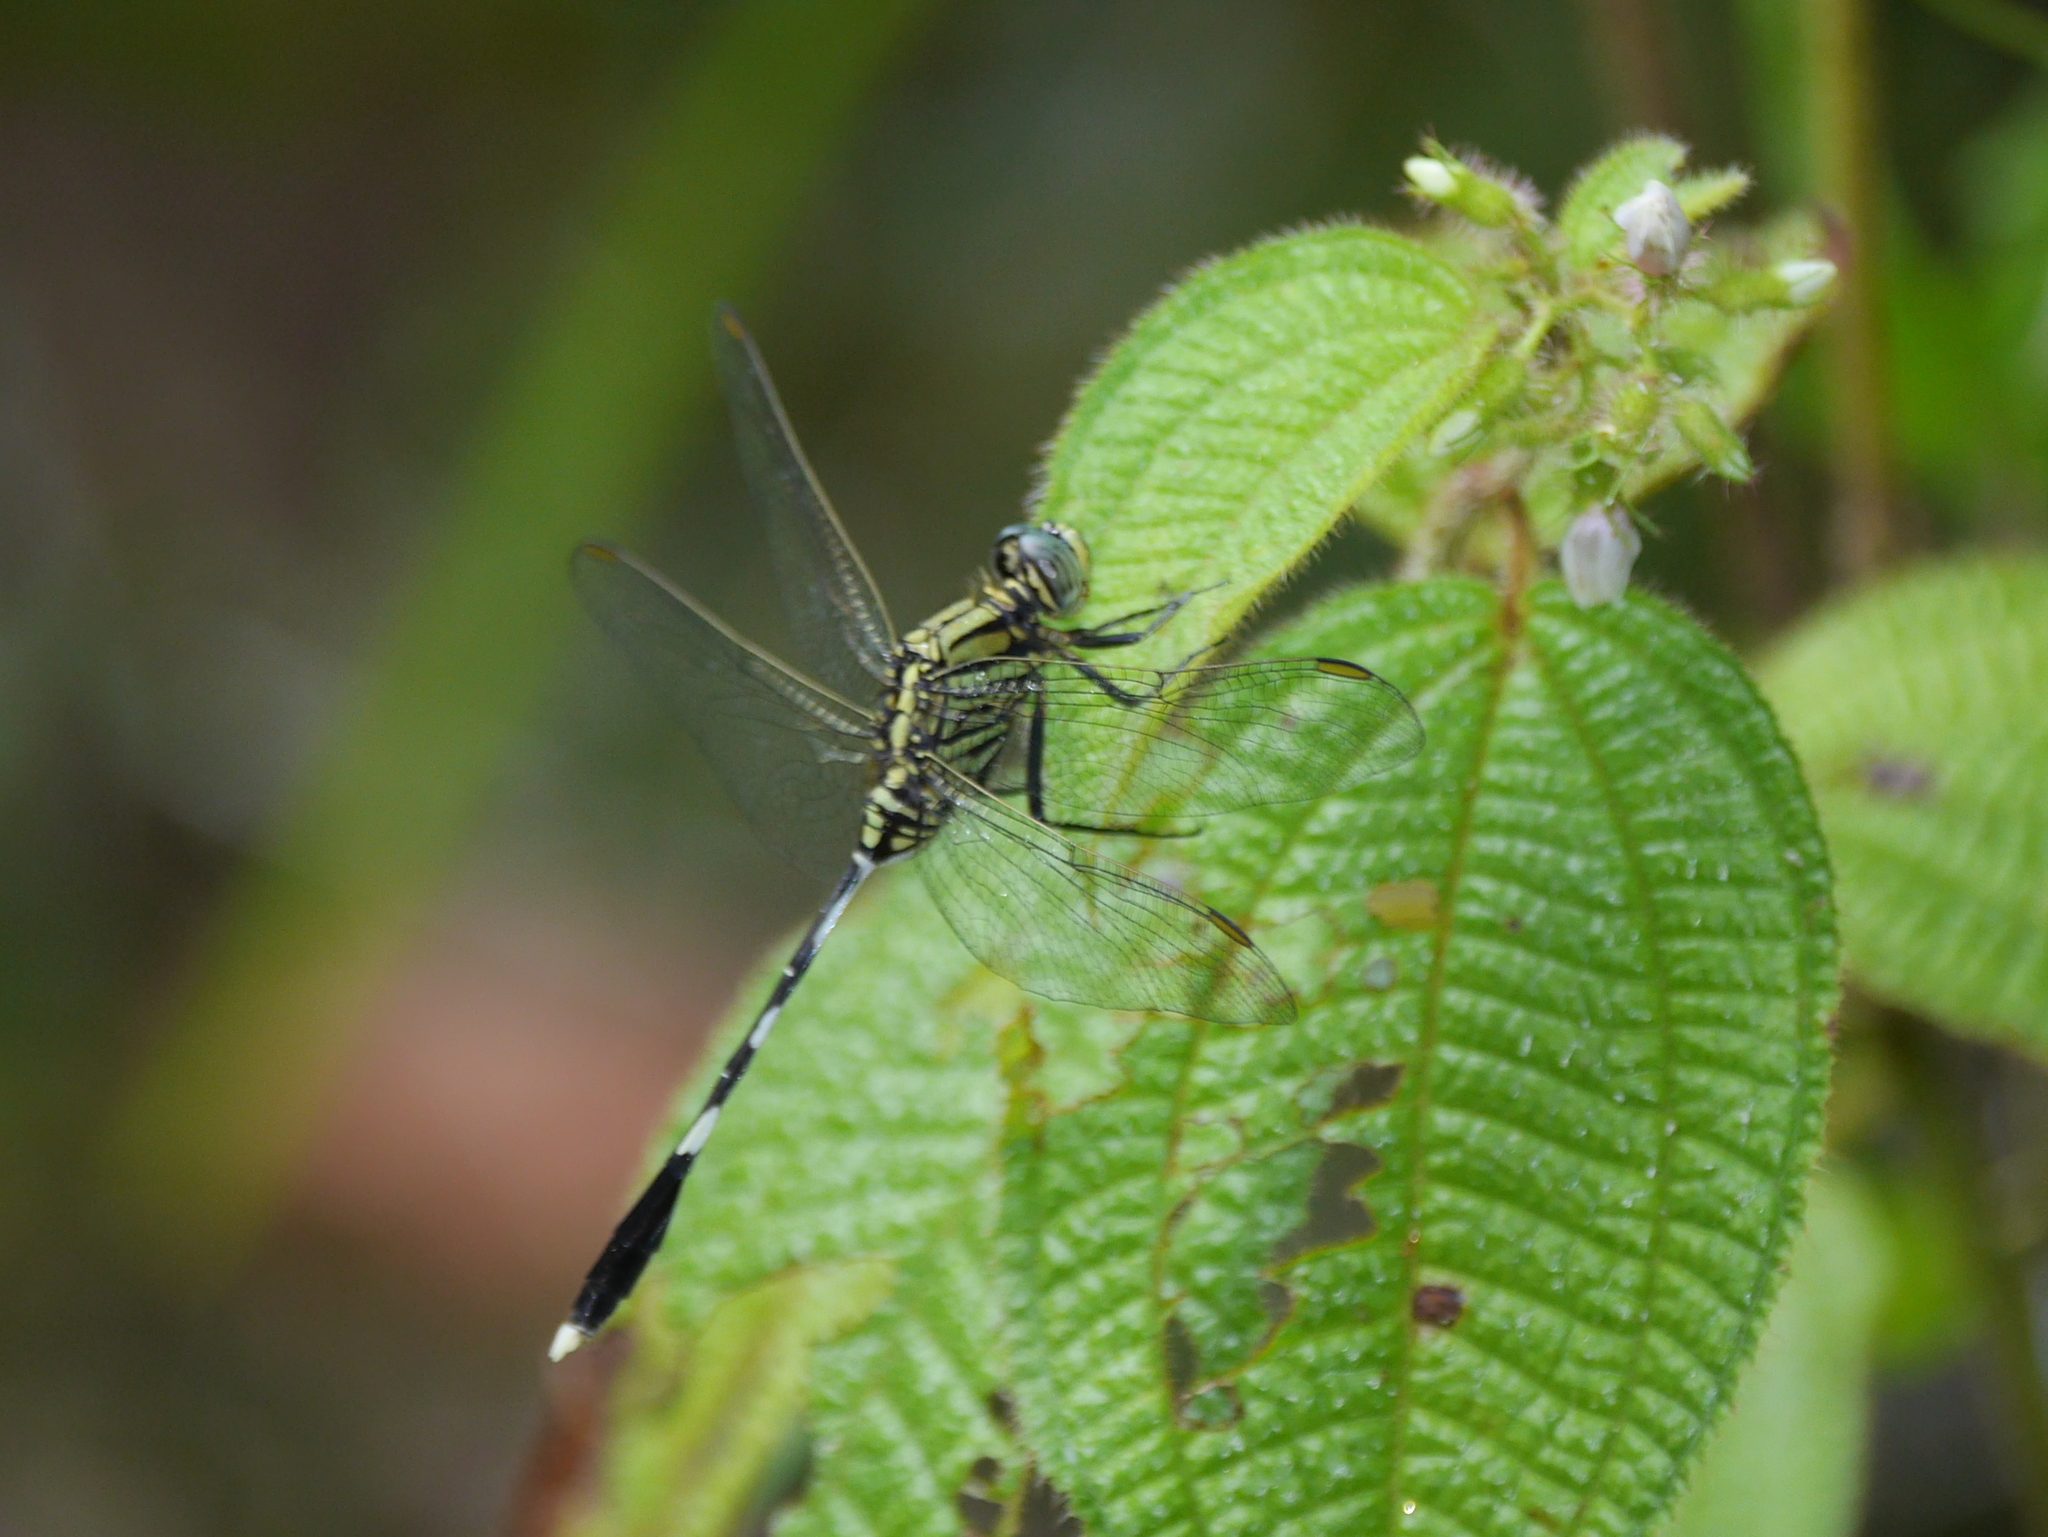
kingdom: Animalia
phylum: Arthropoda
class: Insecta
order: Odonata
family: Libellulidae
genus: Orthetrum
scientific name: Orthetrum sabina
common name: Slender skimmer
